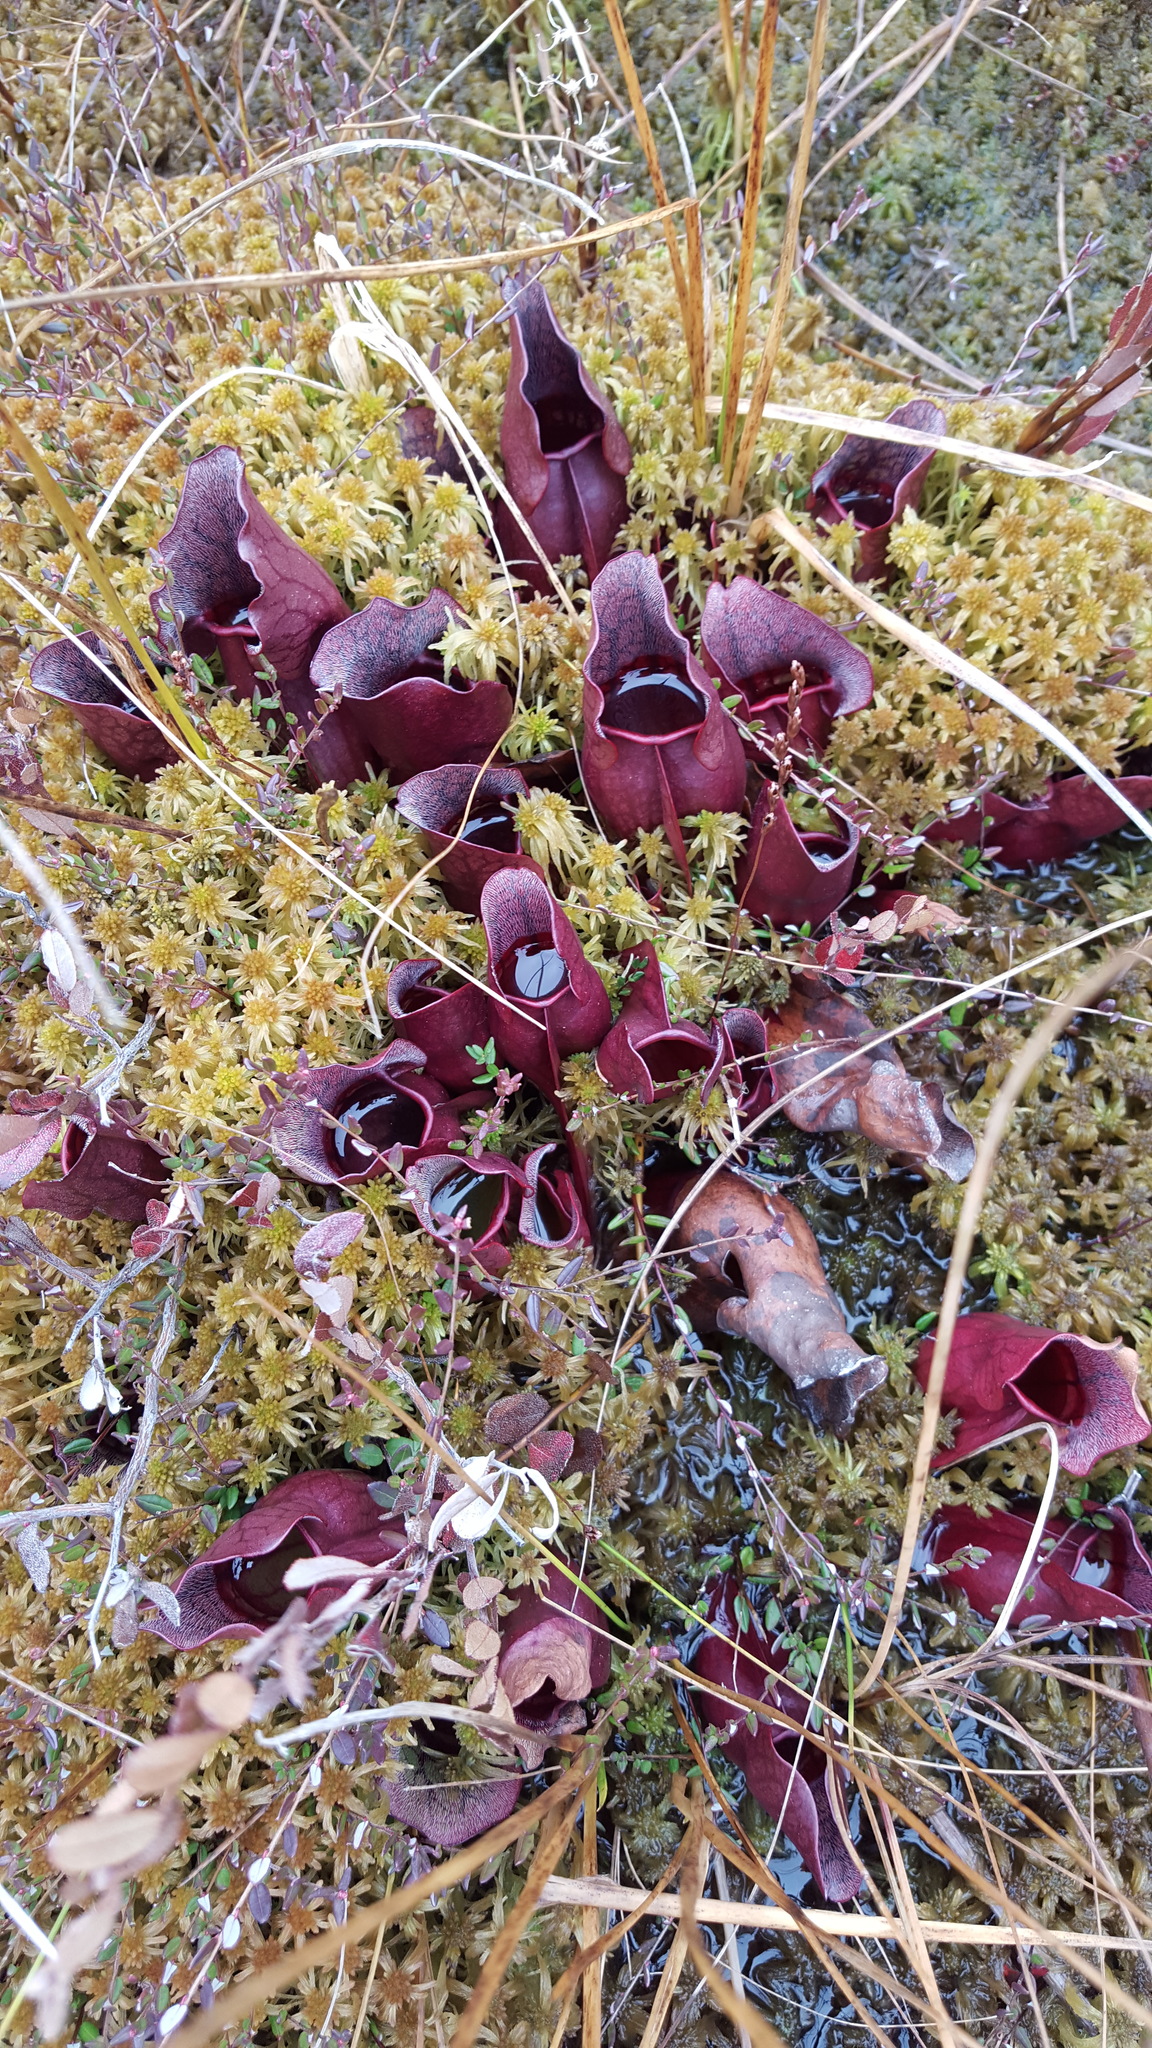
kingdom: Plantae
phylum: Tracheophyta
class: Magnoliopsida
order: Ericales
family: Sarraceniaceae
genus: Sarracenia
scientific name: Sarracenia purpurea
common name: Pitcherplant
